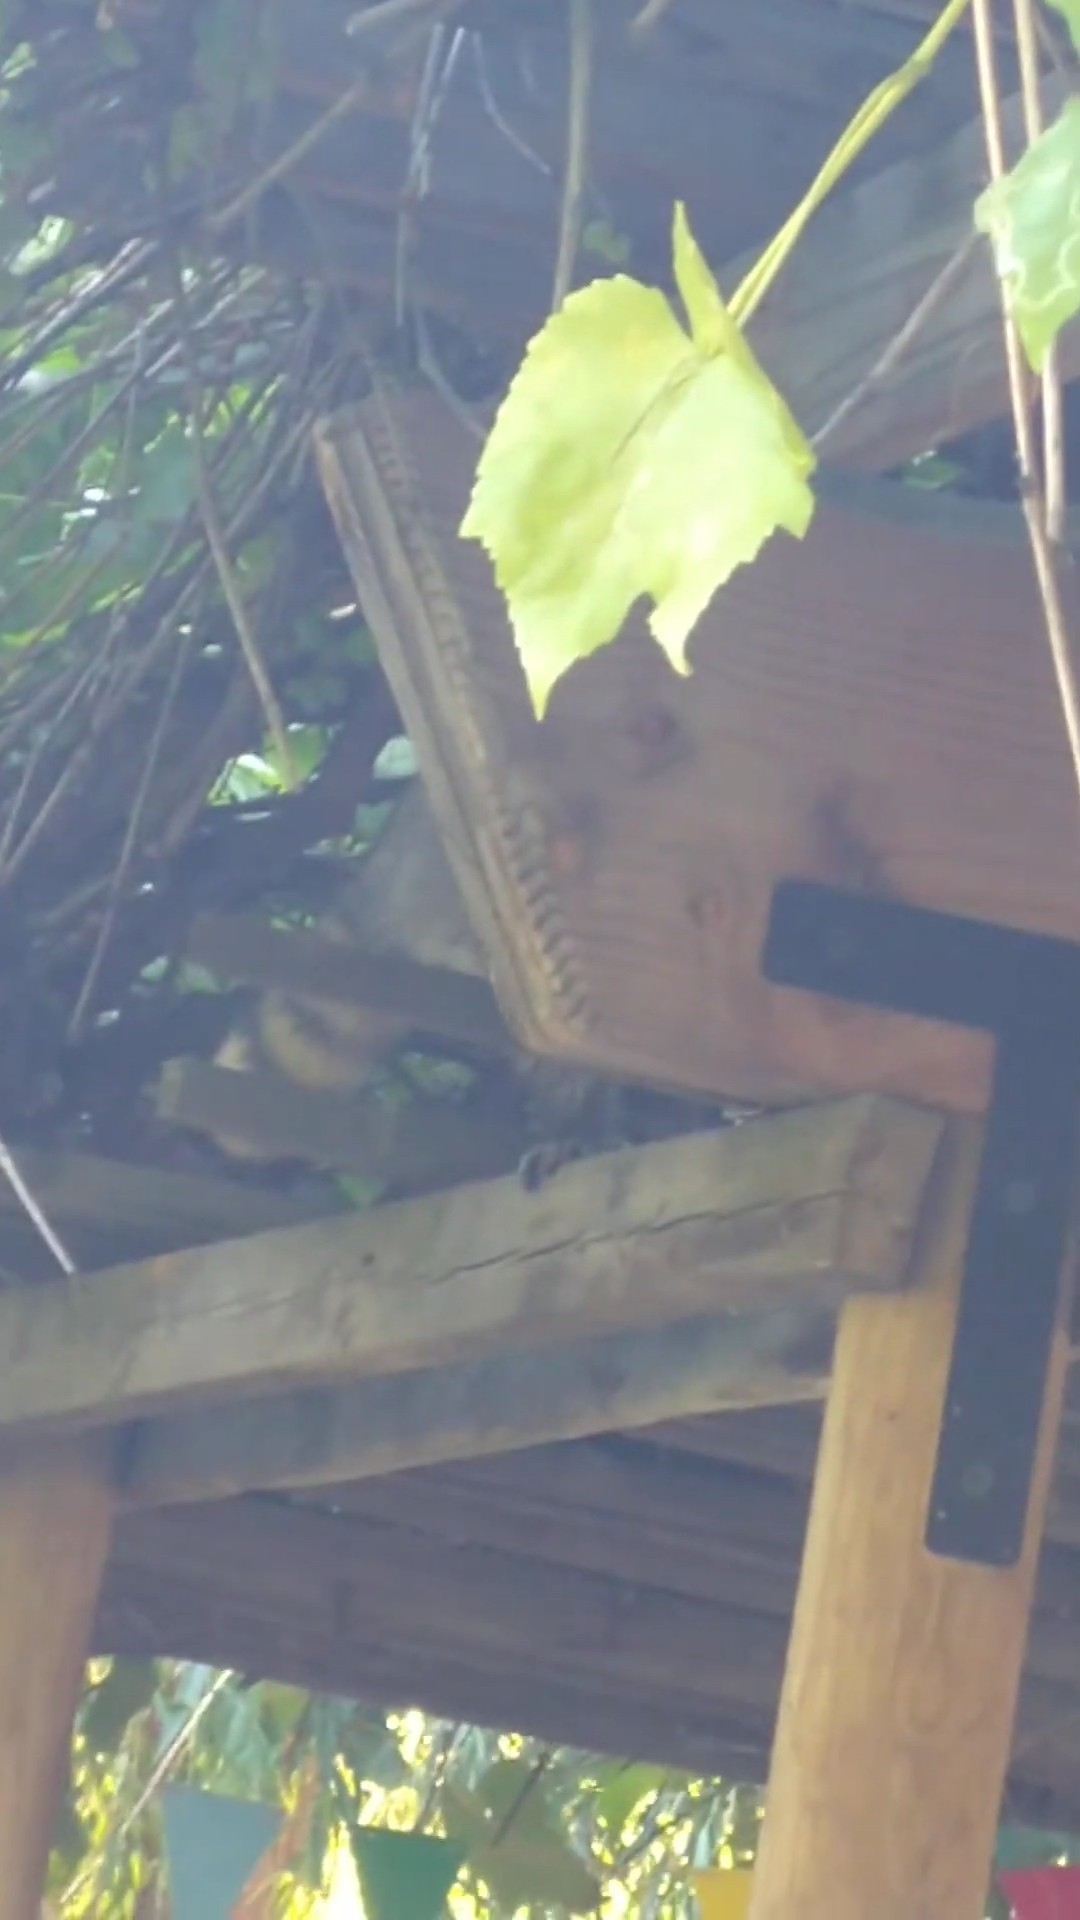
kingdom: Animalia
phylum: Chordata
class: Mammalia
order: Carnivora
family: Procyonidae
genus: Procyon
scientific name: Procyon lotor
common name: Raccoon
